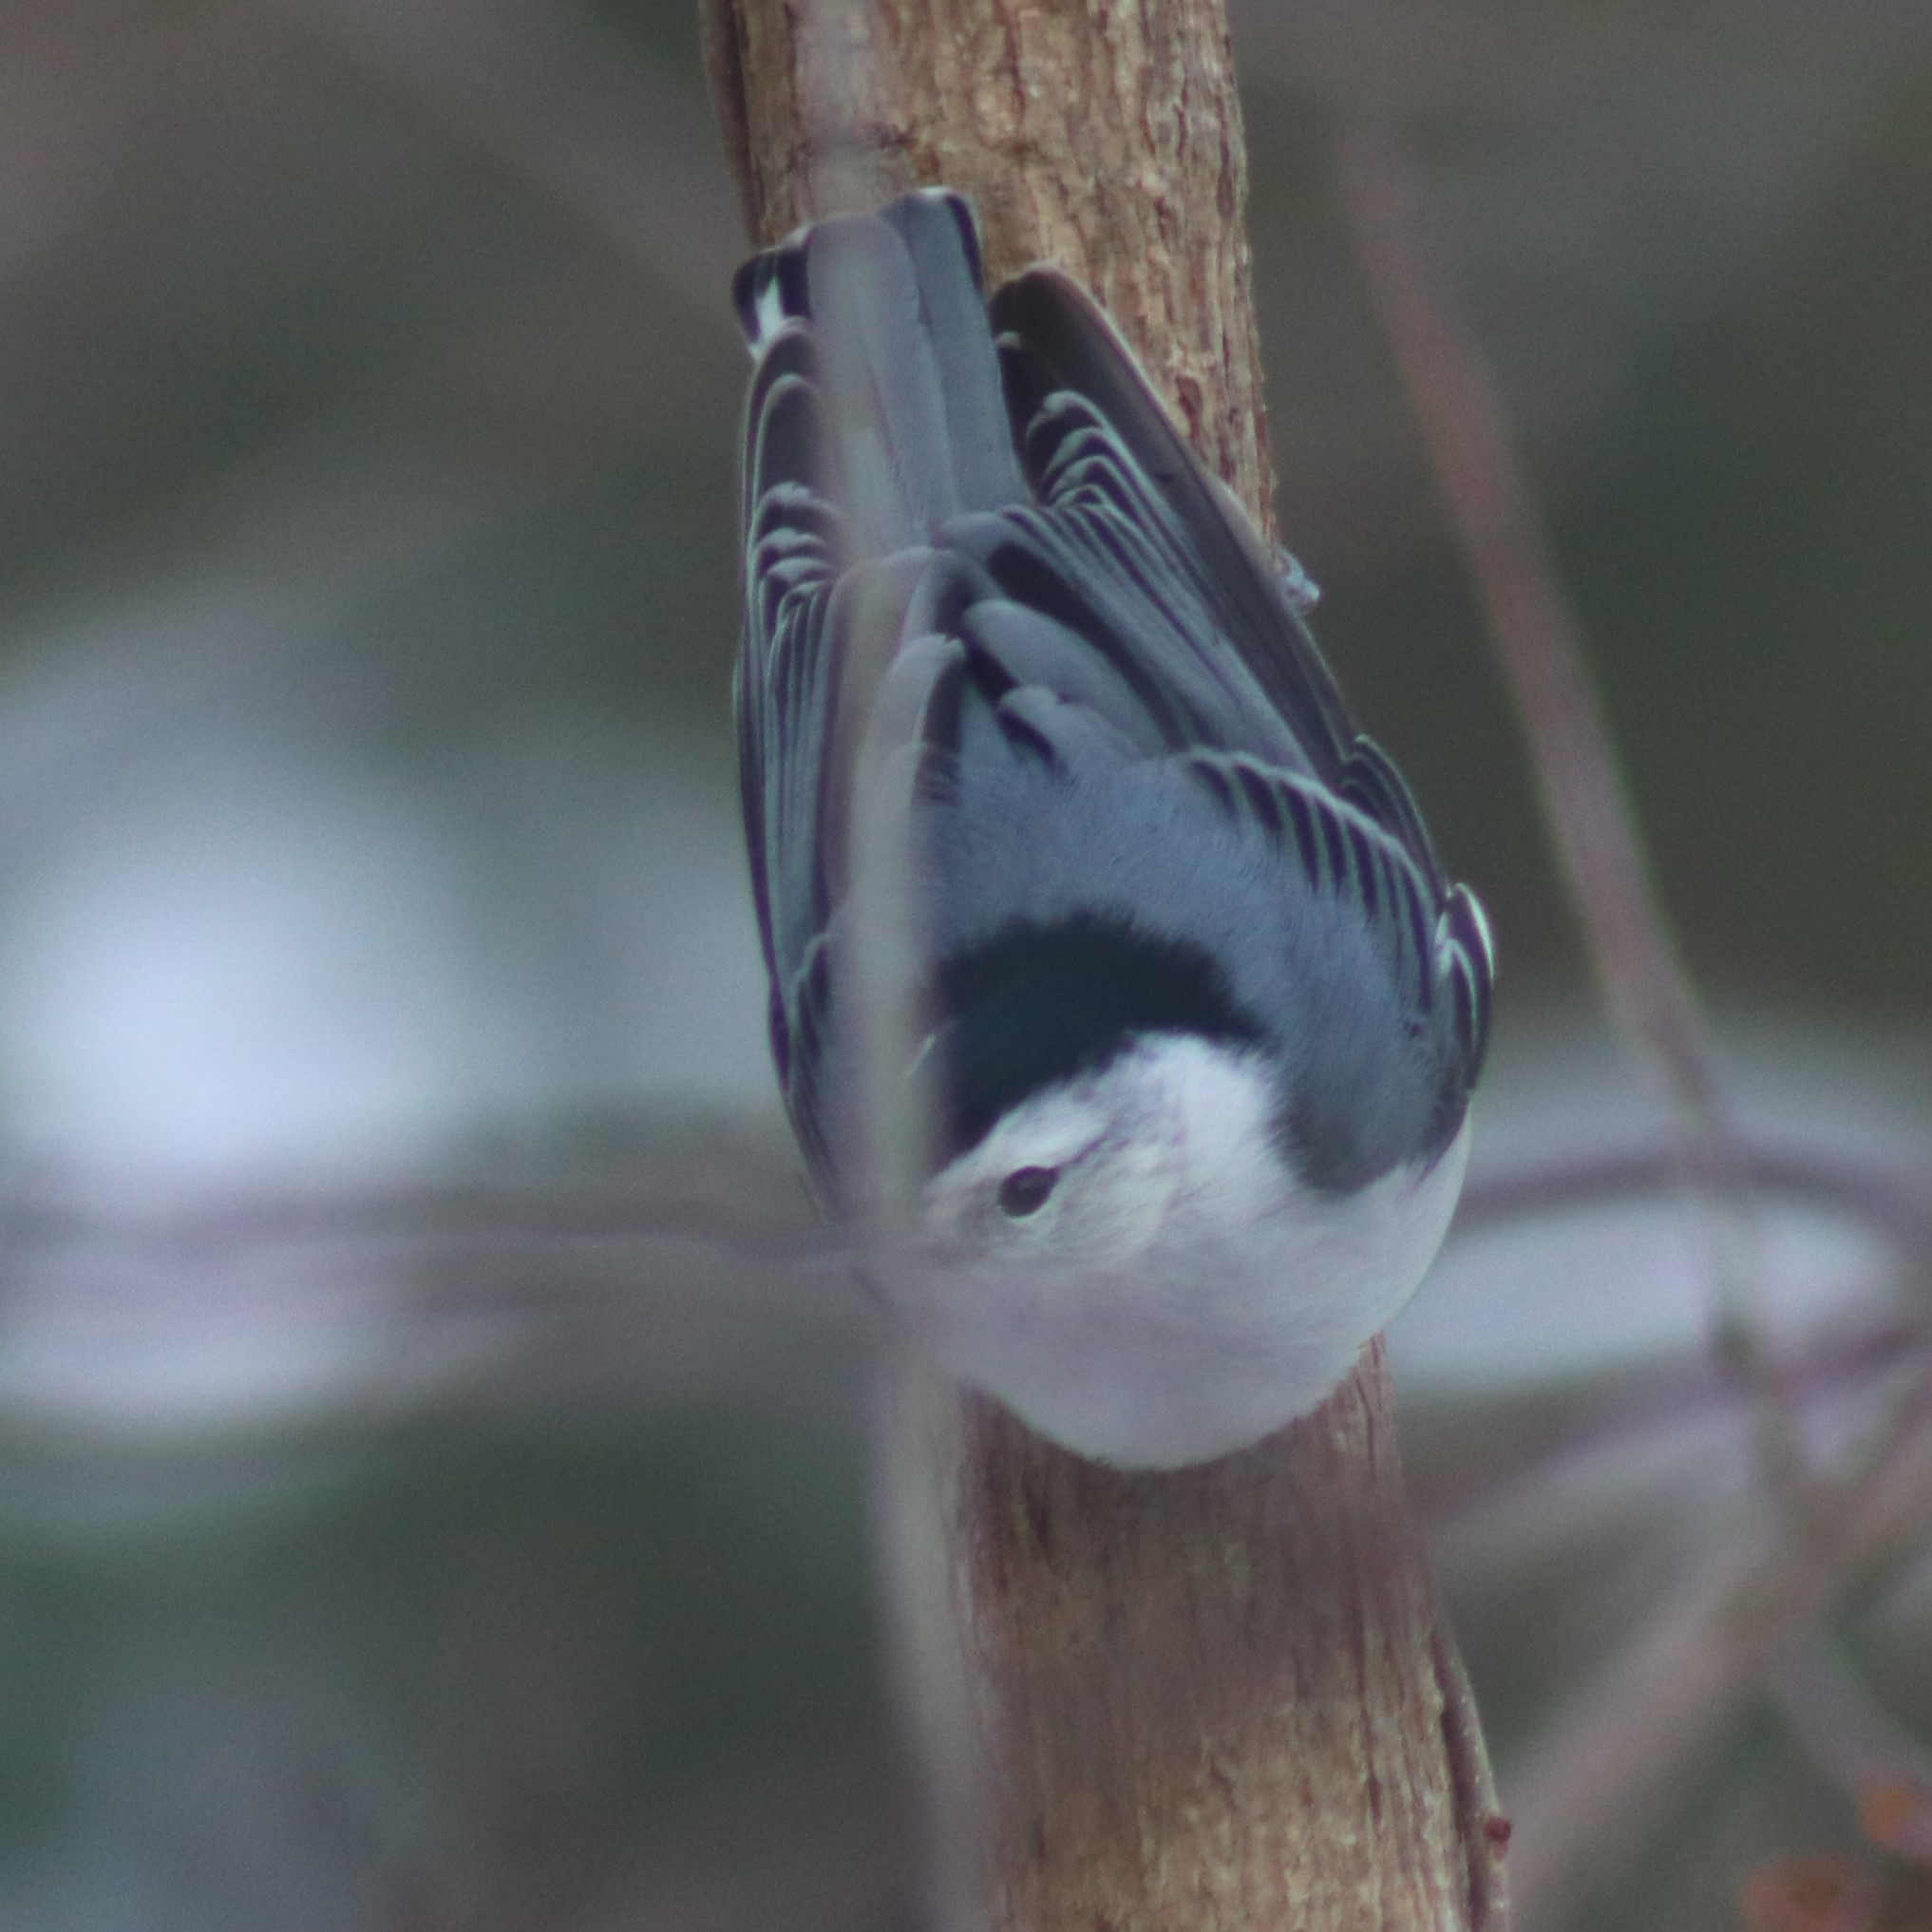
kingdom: Animalia
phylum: Chordata
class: Aves
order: Passeriformes
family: Sittidae
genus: Sitta
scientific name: Sitta carolinensis
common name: White-breasted nuthatch
